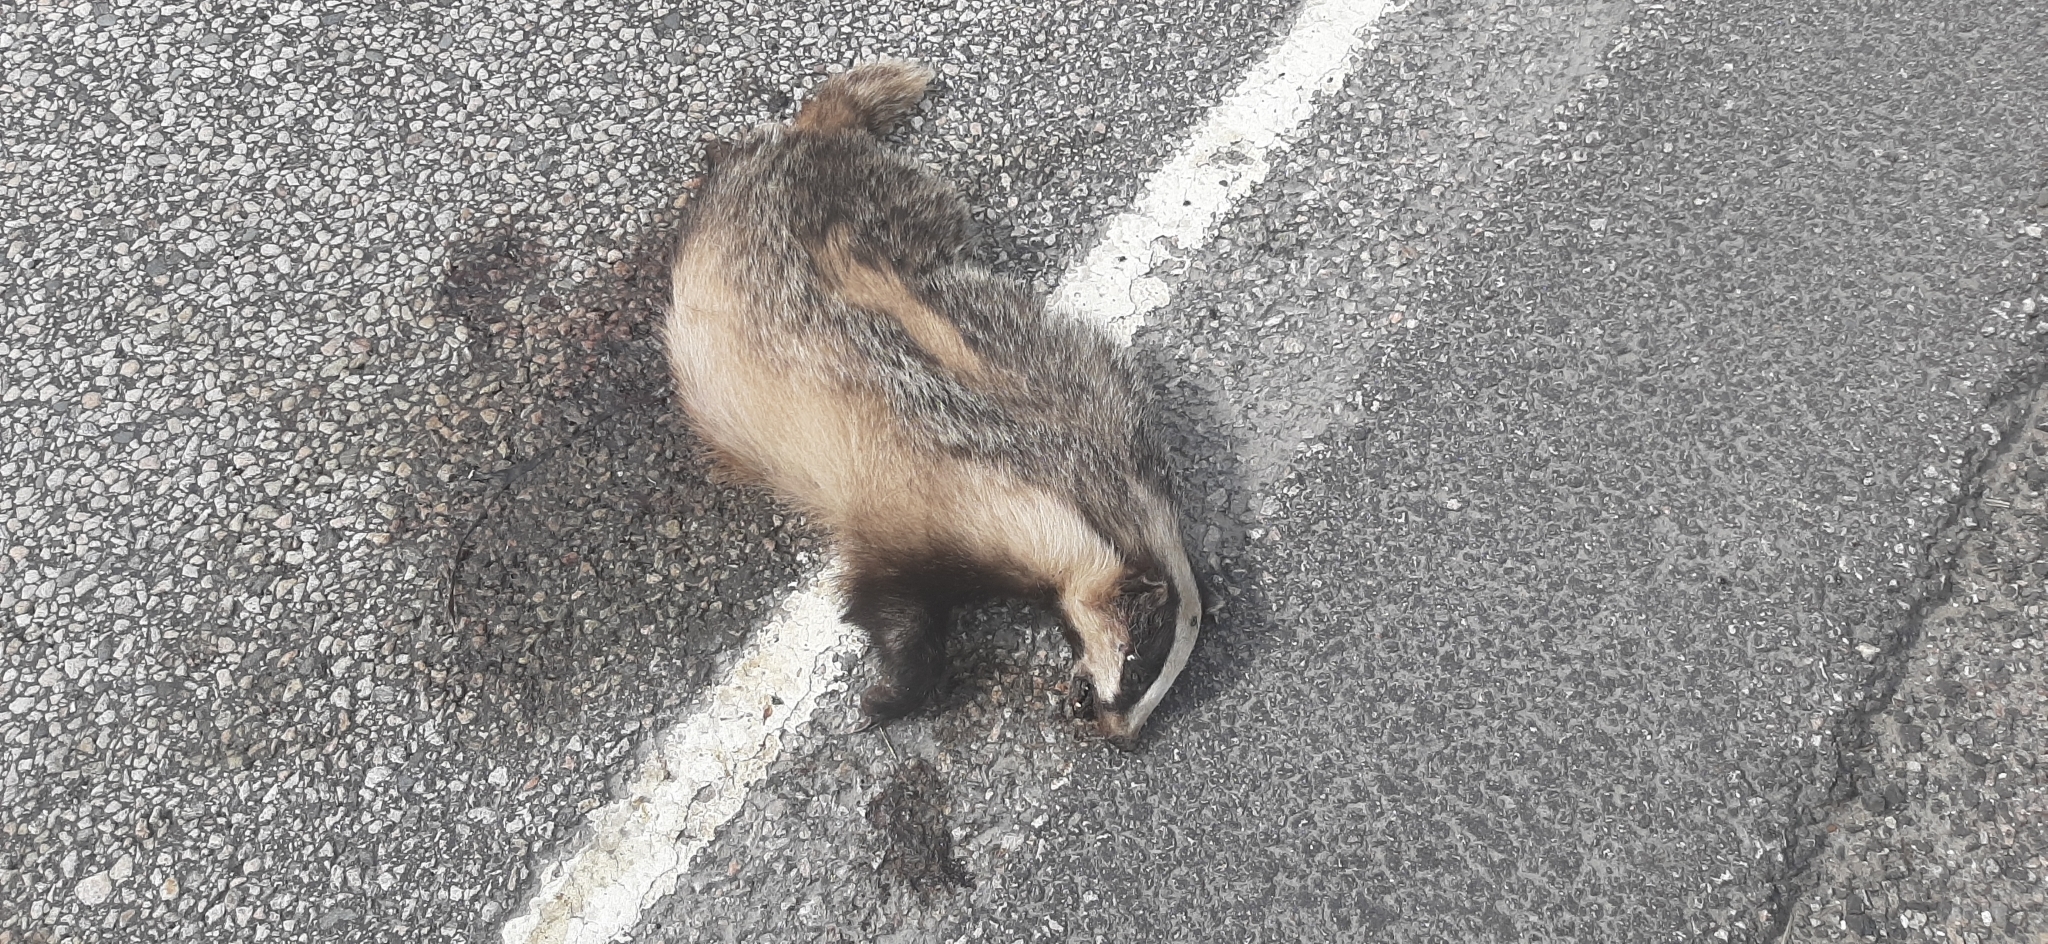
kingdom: Animalia
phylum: Chordata
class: Mammalia
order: Carnivora
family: Mustelidae
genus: Meles
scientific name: Meles meles
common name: Eurasian badger
